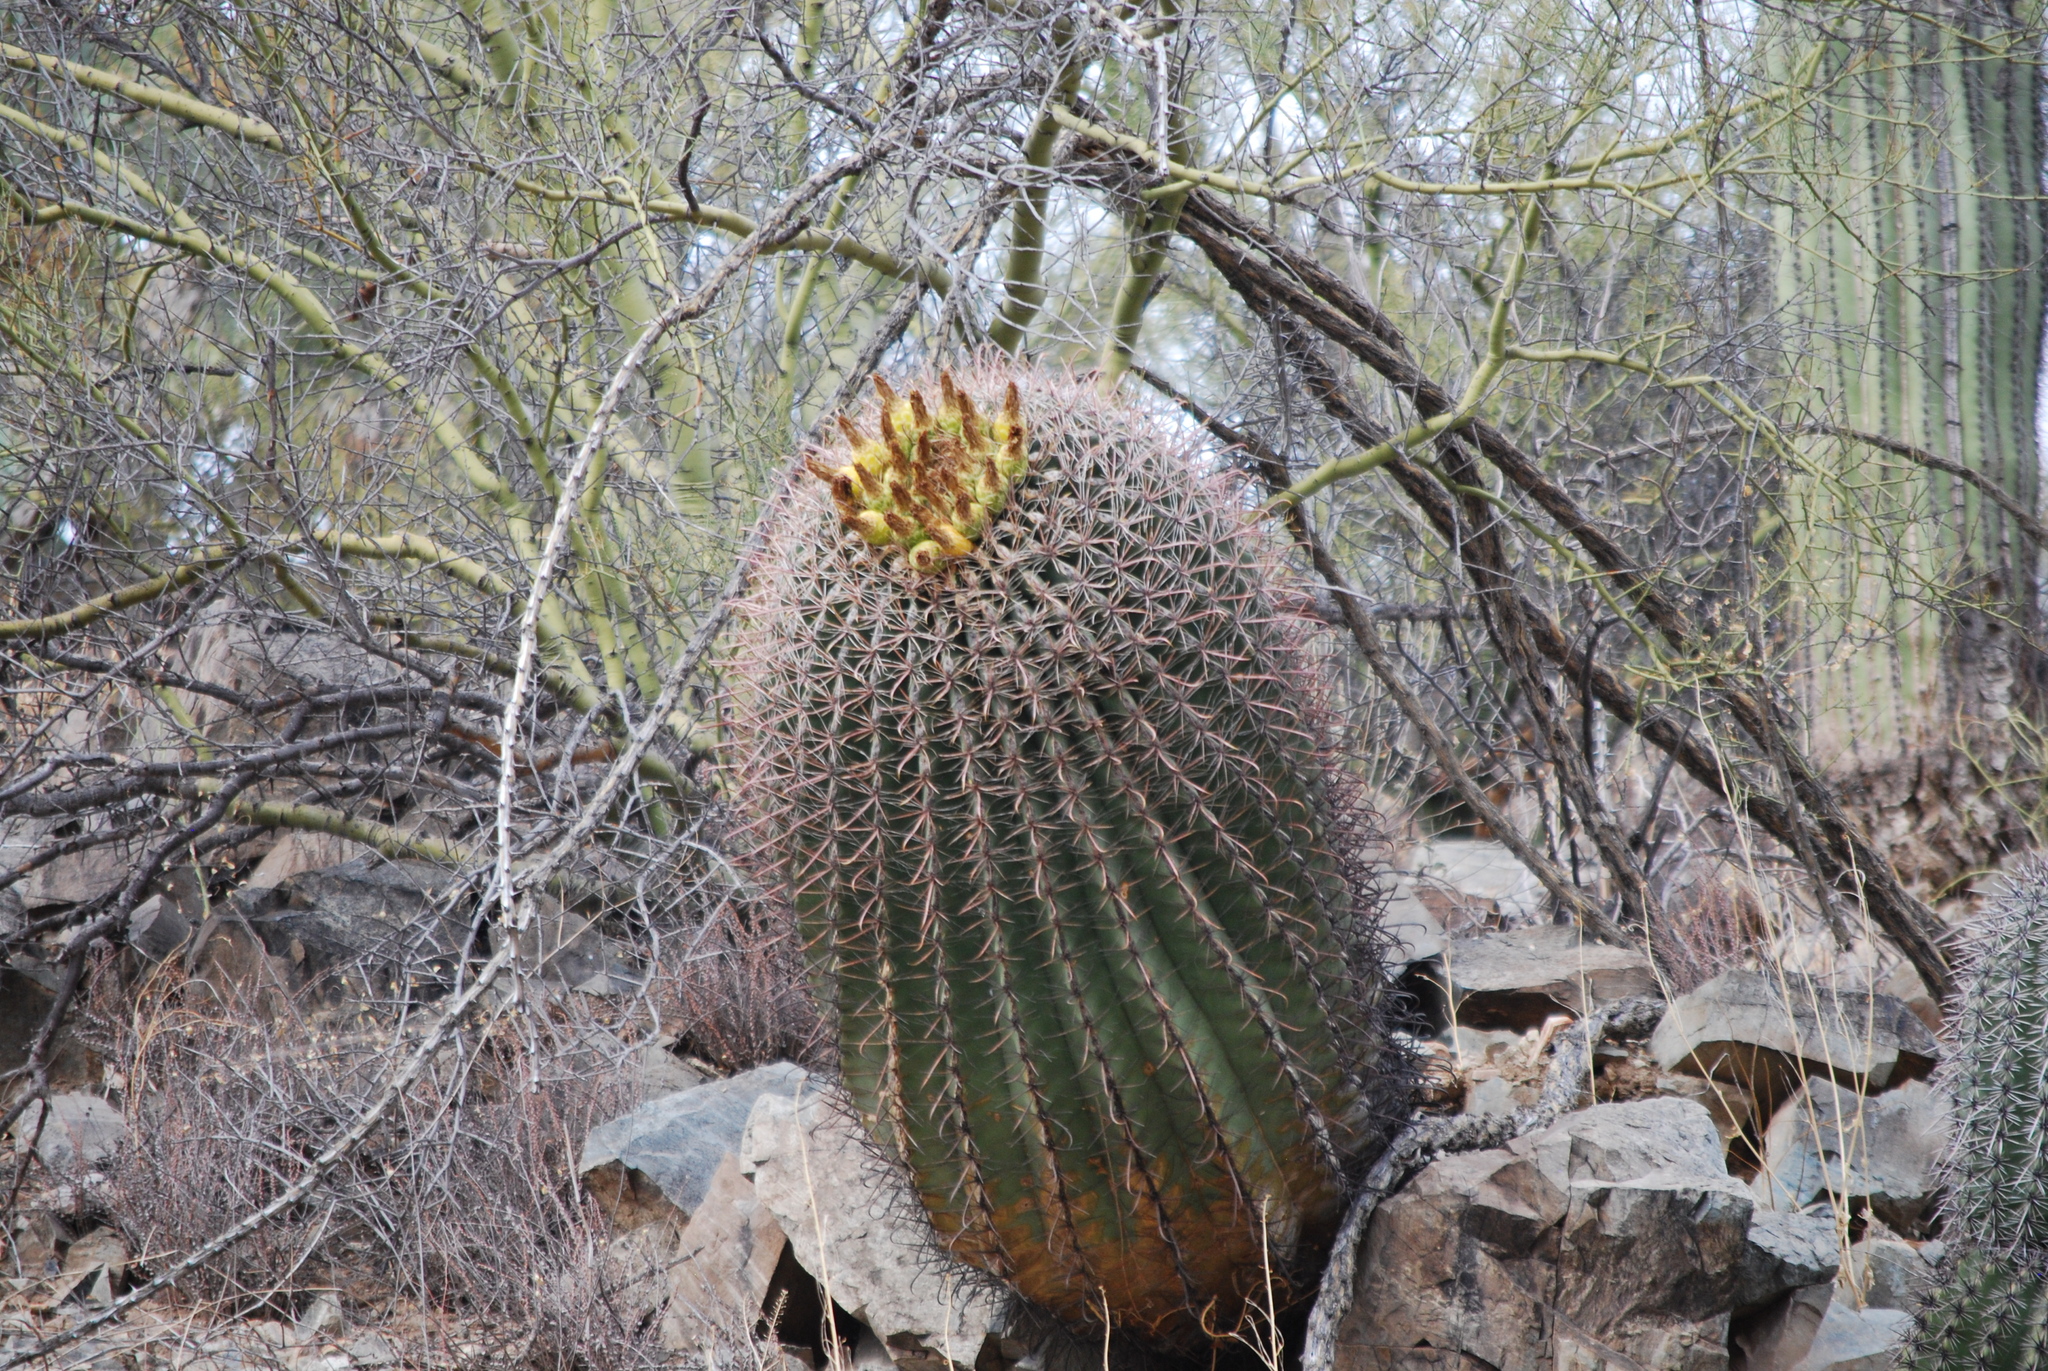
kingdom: Plantae
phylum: Tracheophyta
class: Magnoliopsida
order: Caryophyllales
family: Cactaceae
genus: Ferocactus
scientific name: Ferocactus wislizeni
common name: Candy barrel cactus
